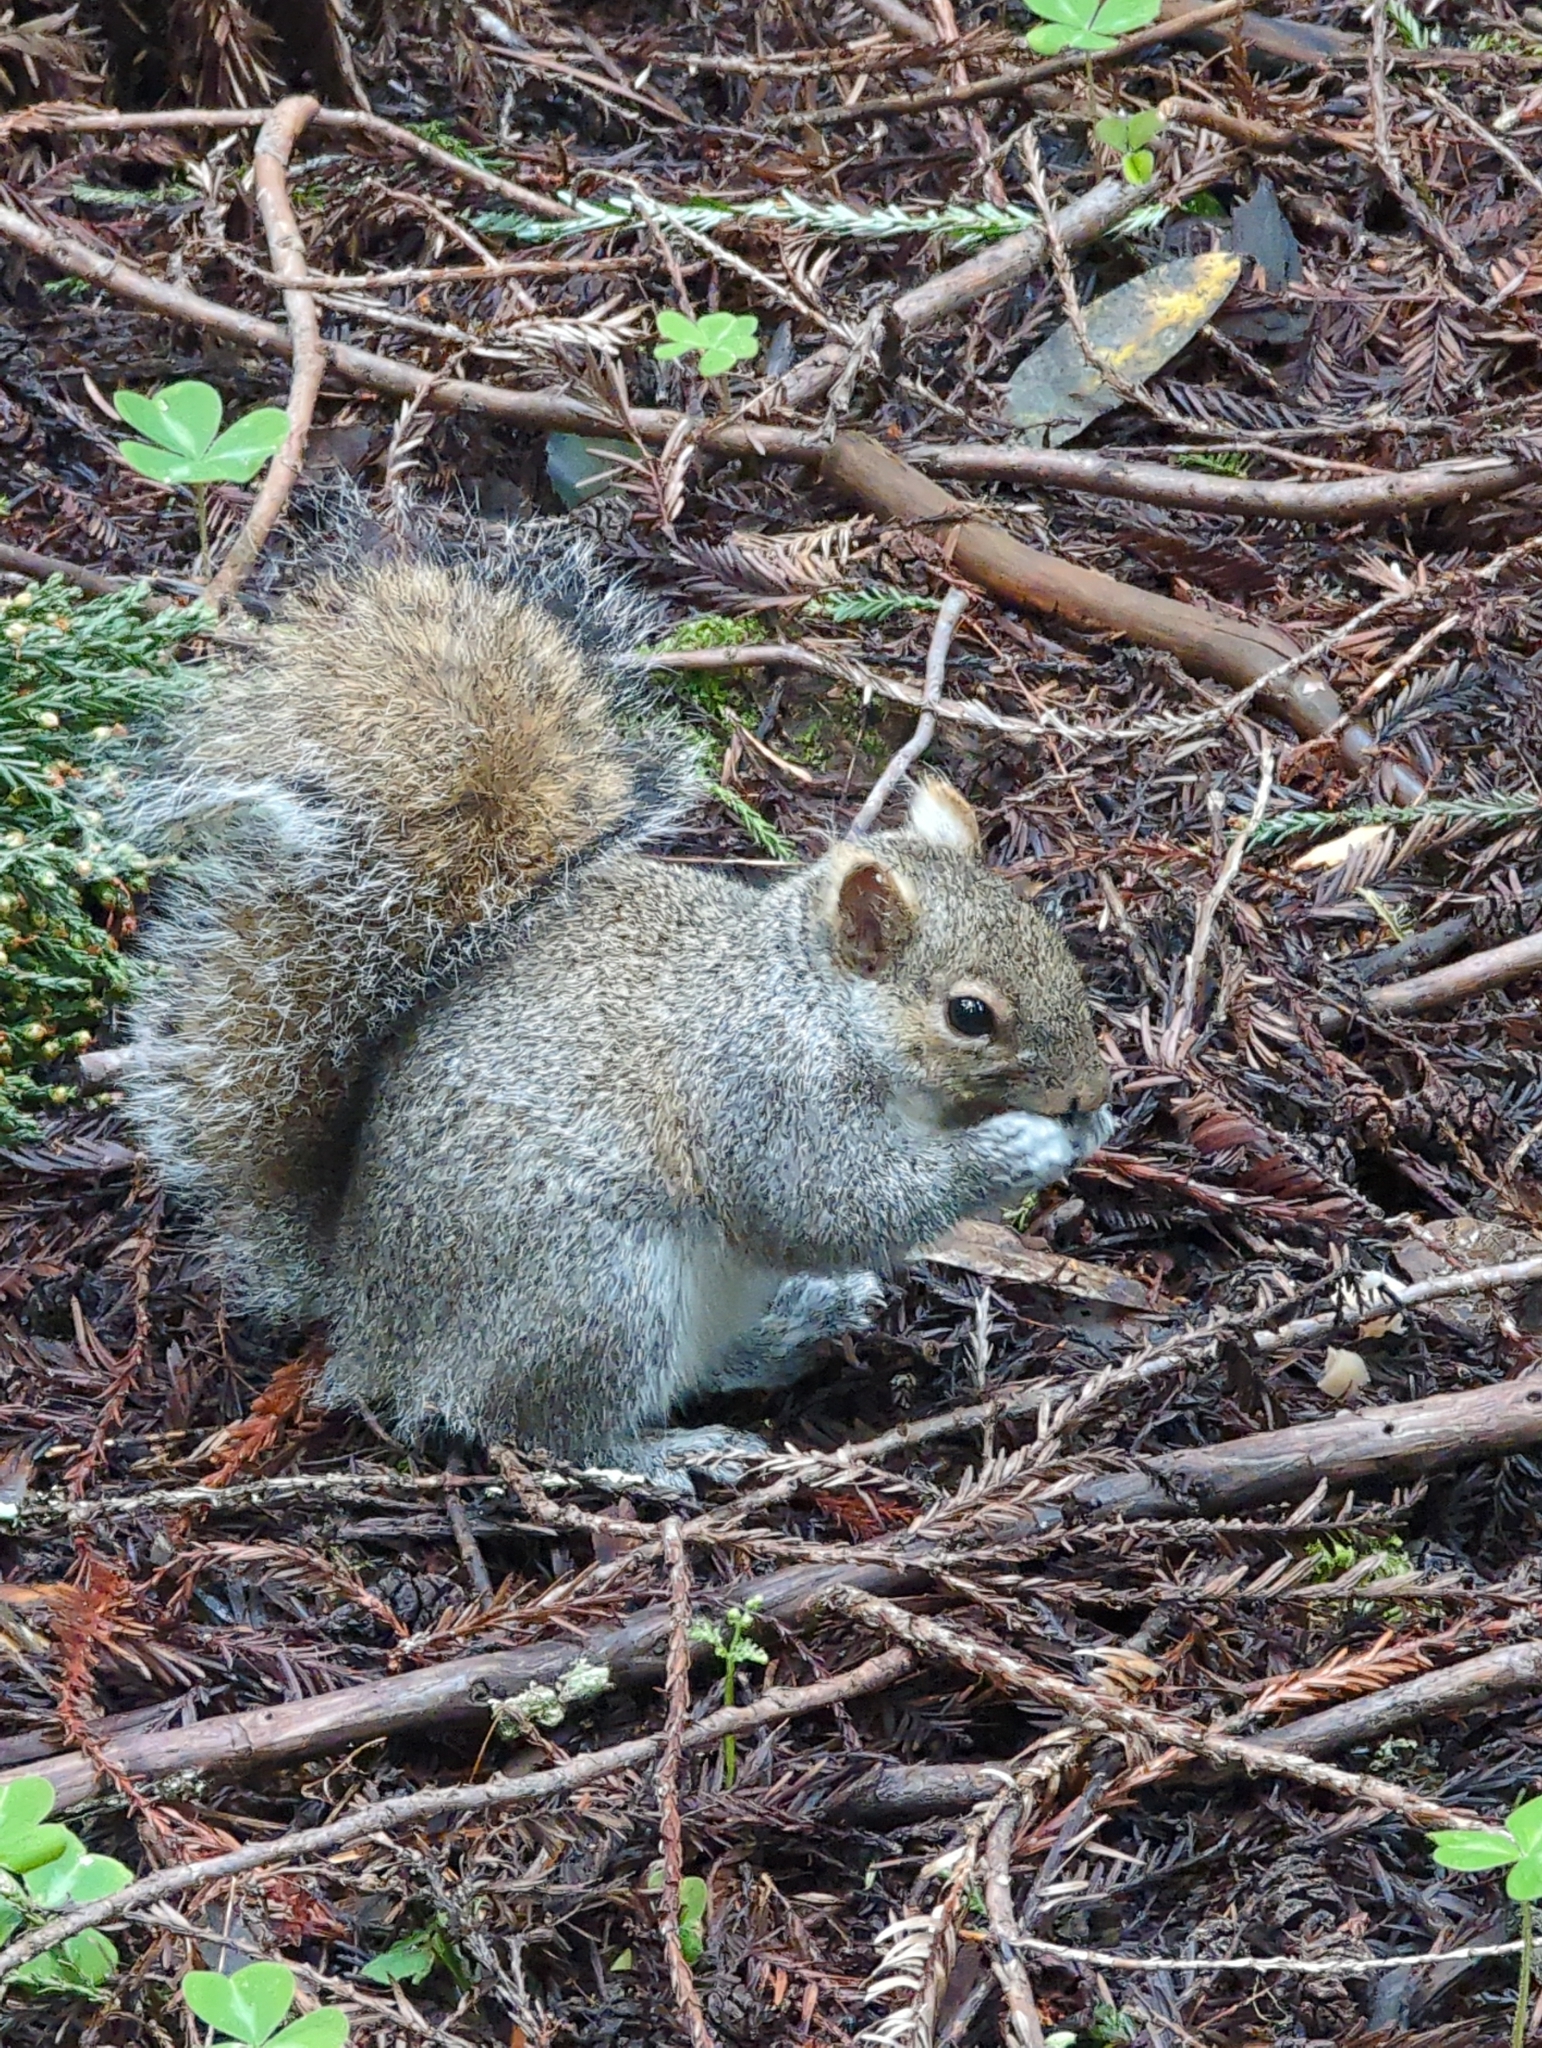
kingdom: Animalia
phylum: Chordata
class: Mammalia
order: Rodentia
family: Sciuridae
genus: Sciurus
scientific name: Sciurus carolinensis
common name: Eastern gray squirrel
